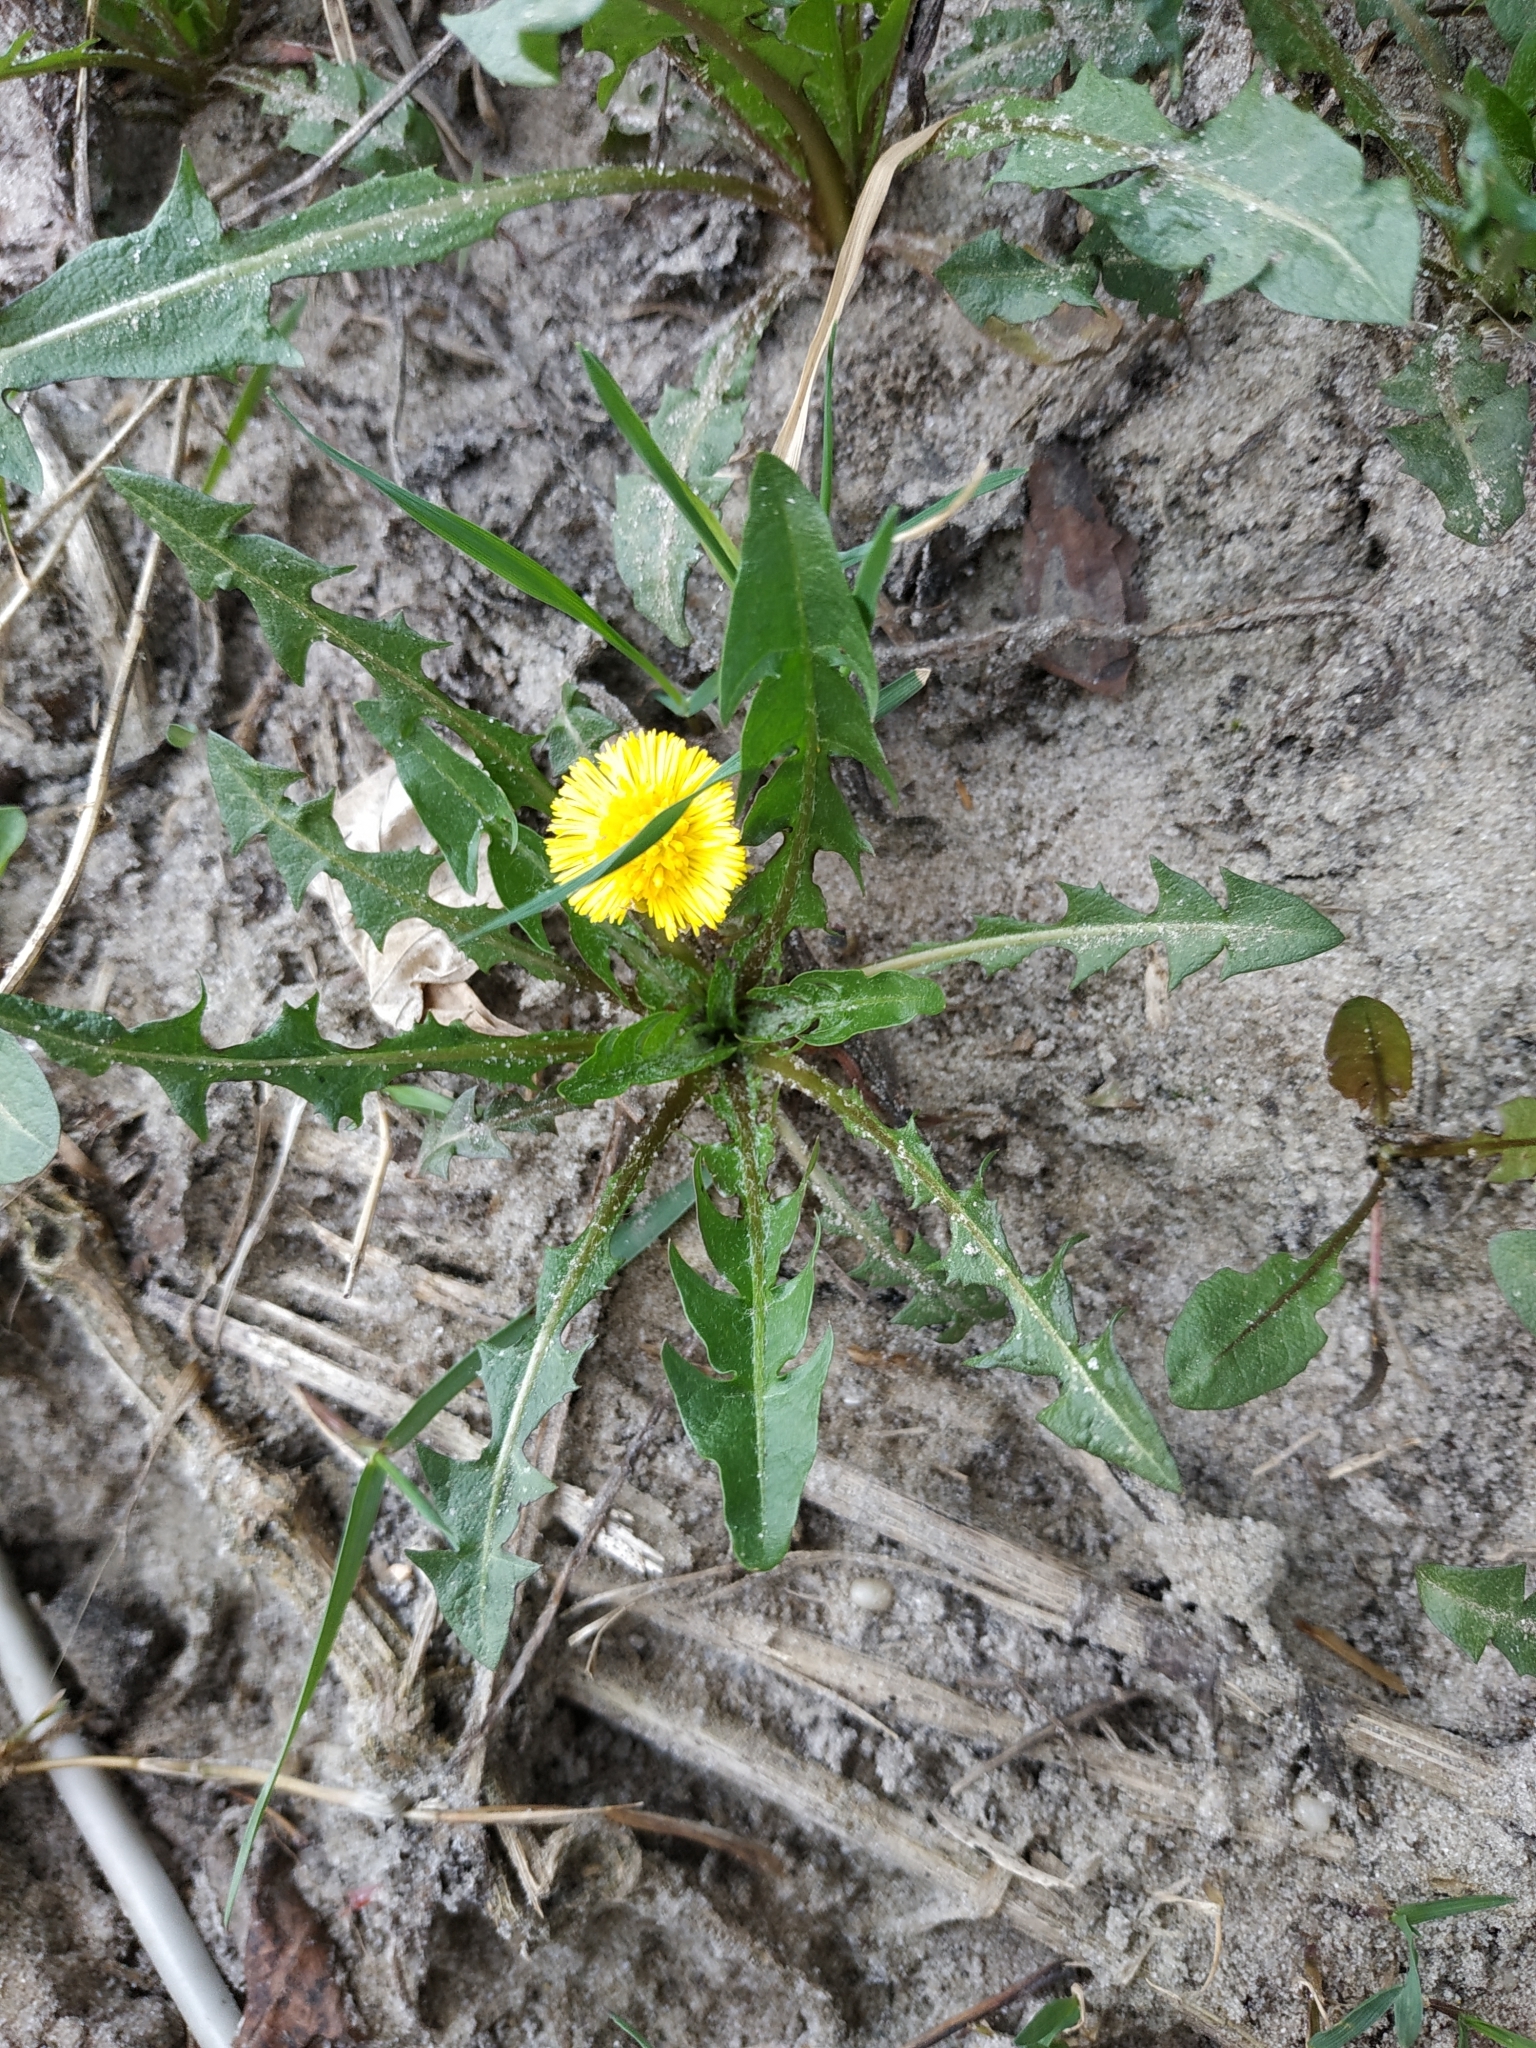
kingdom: Plantae
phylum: Tracheophyta
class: Magnoliopsida
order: Asterales
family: Asteraceae
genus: Tussilago
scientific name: Tussilago farfara
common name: Coltsfoot
